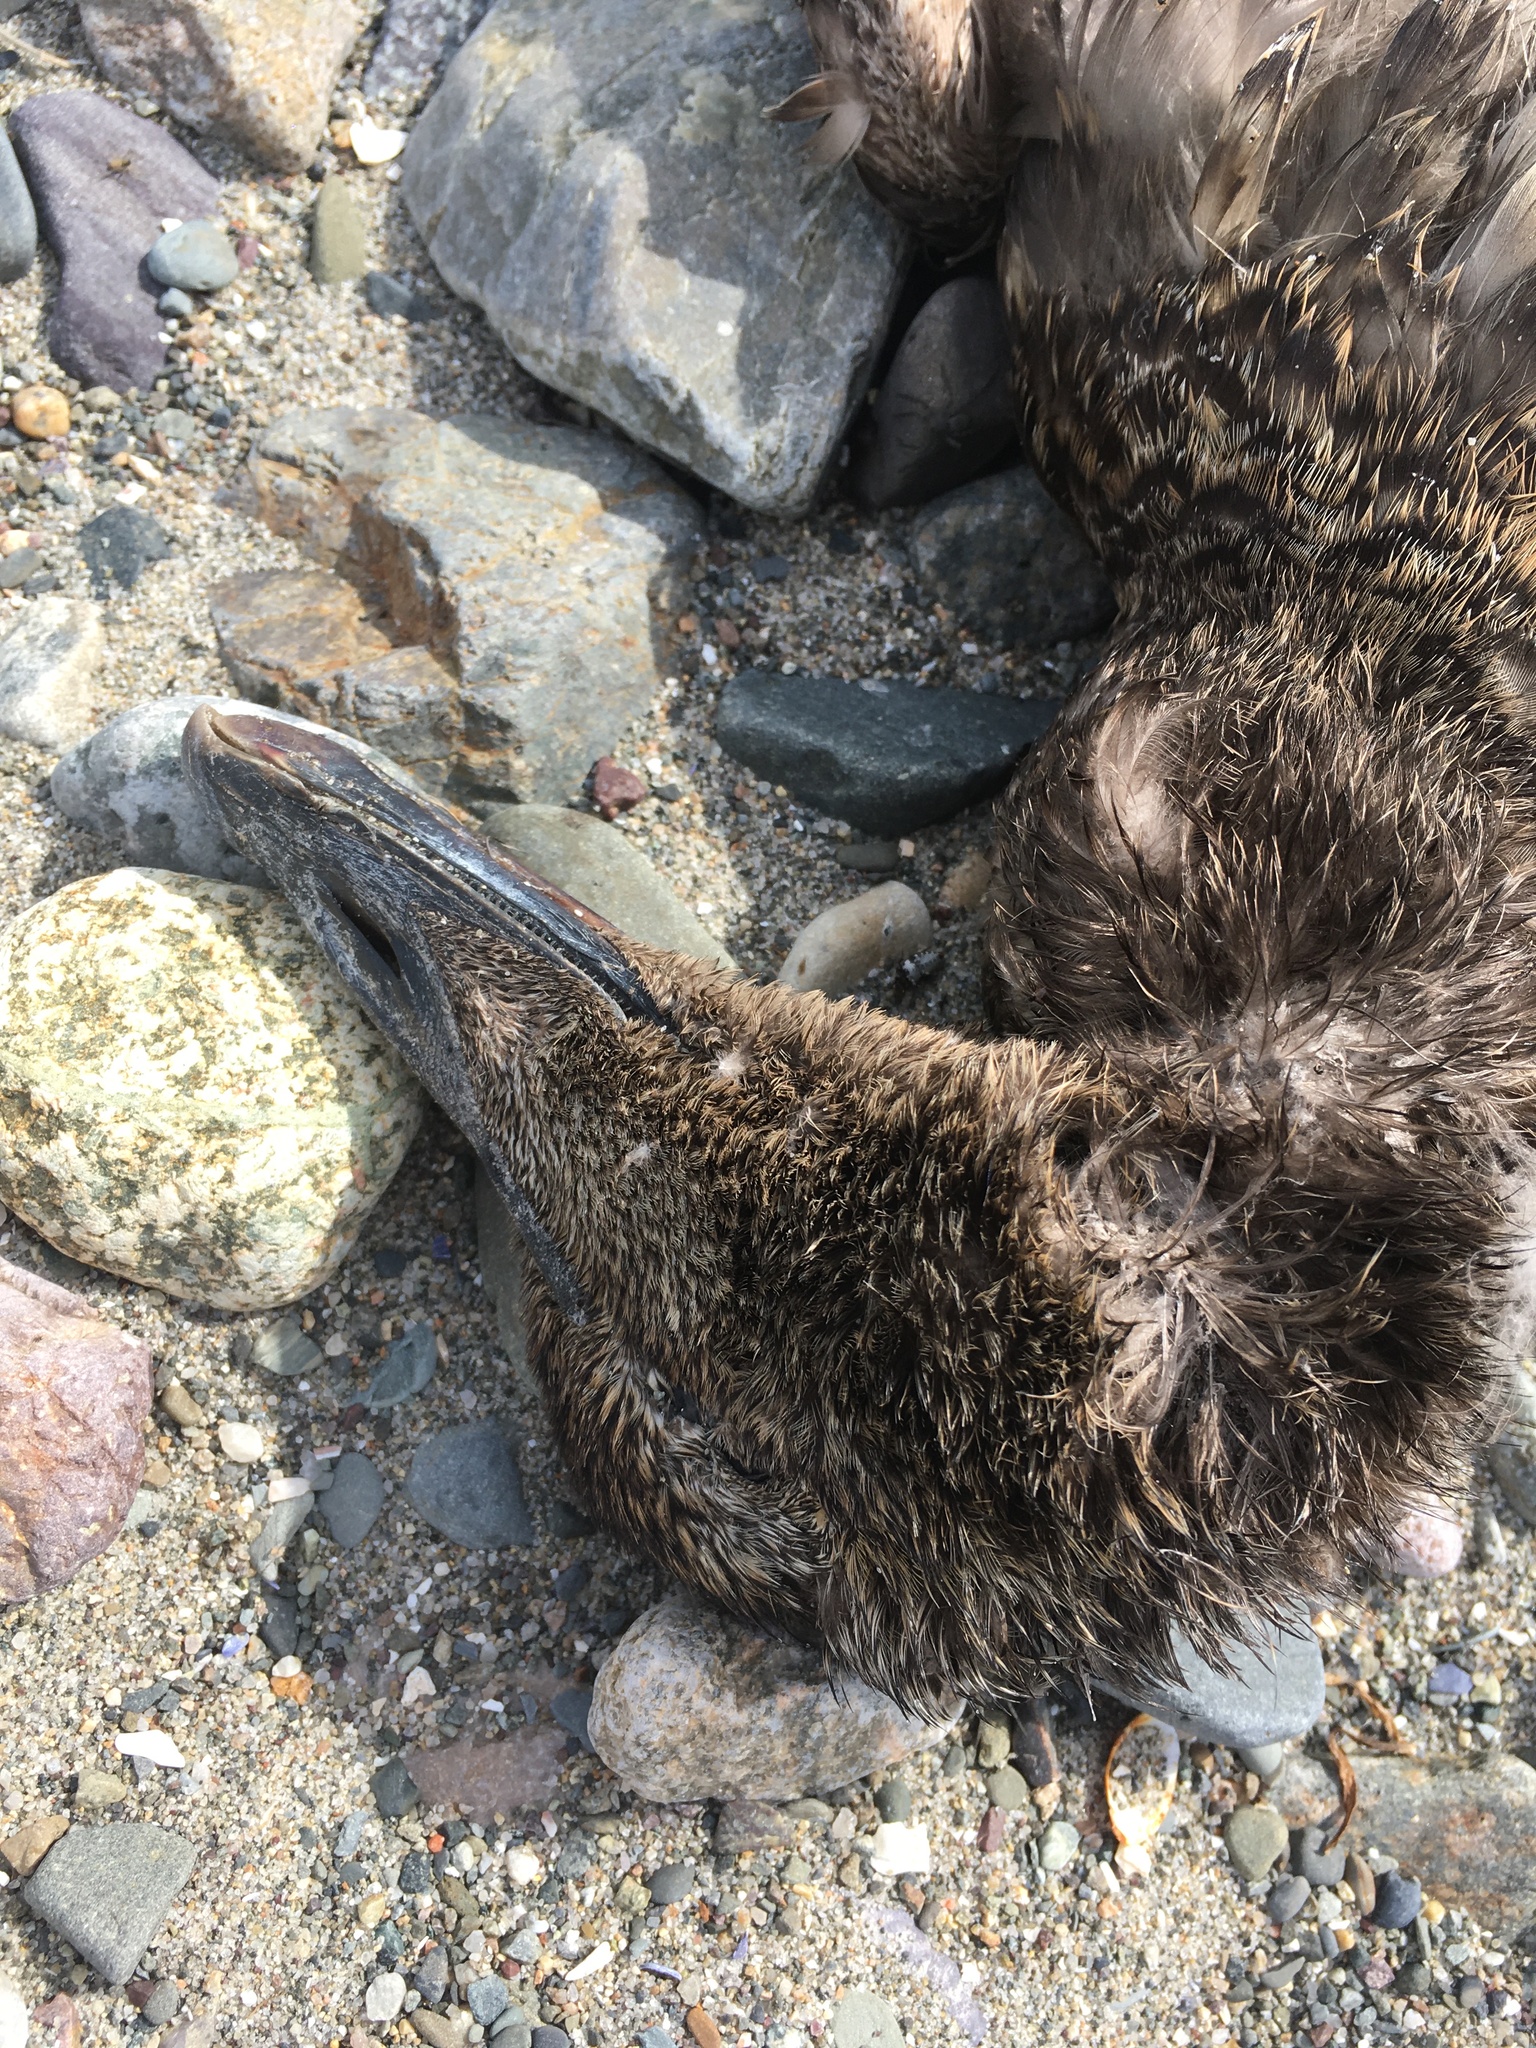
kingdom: Animalia
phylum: Chordata
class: Aves
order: Anseriformes
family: Anatidae
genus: Somateria
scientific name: Somateria mollissima
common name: Common eider
